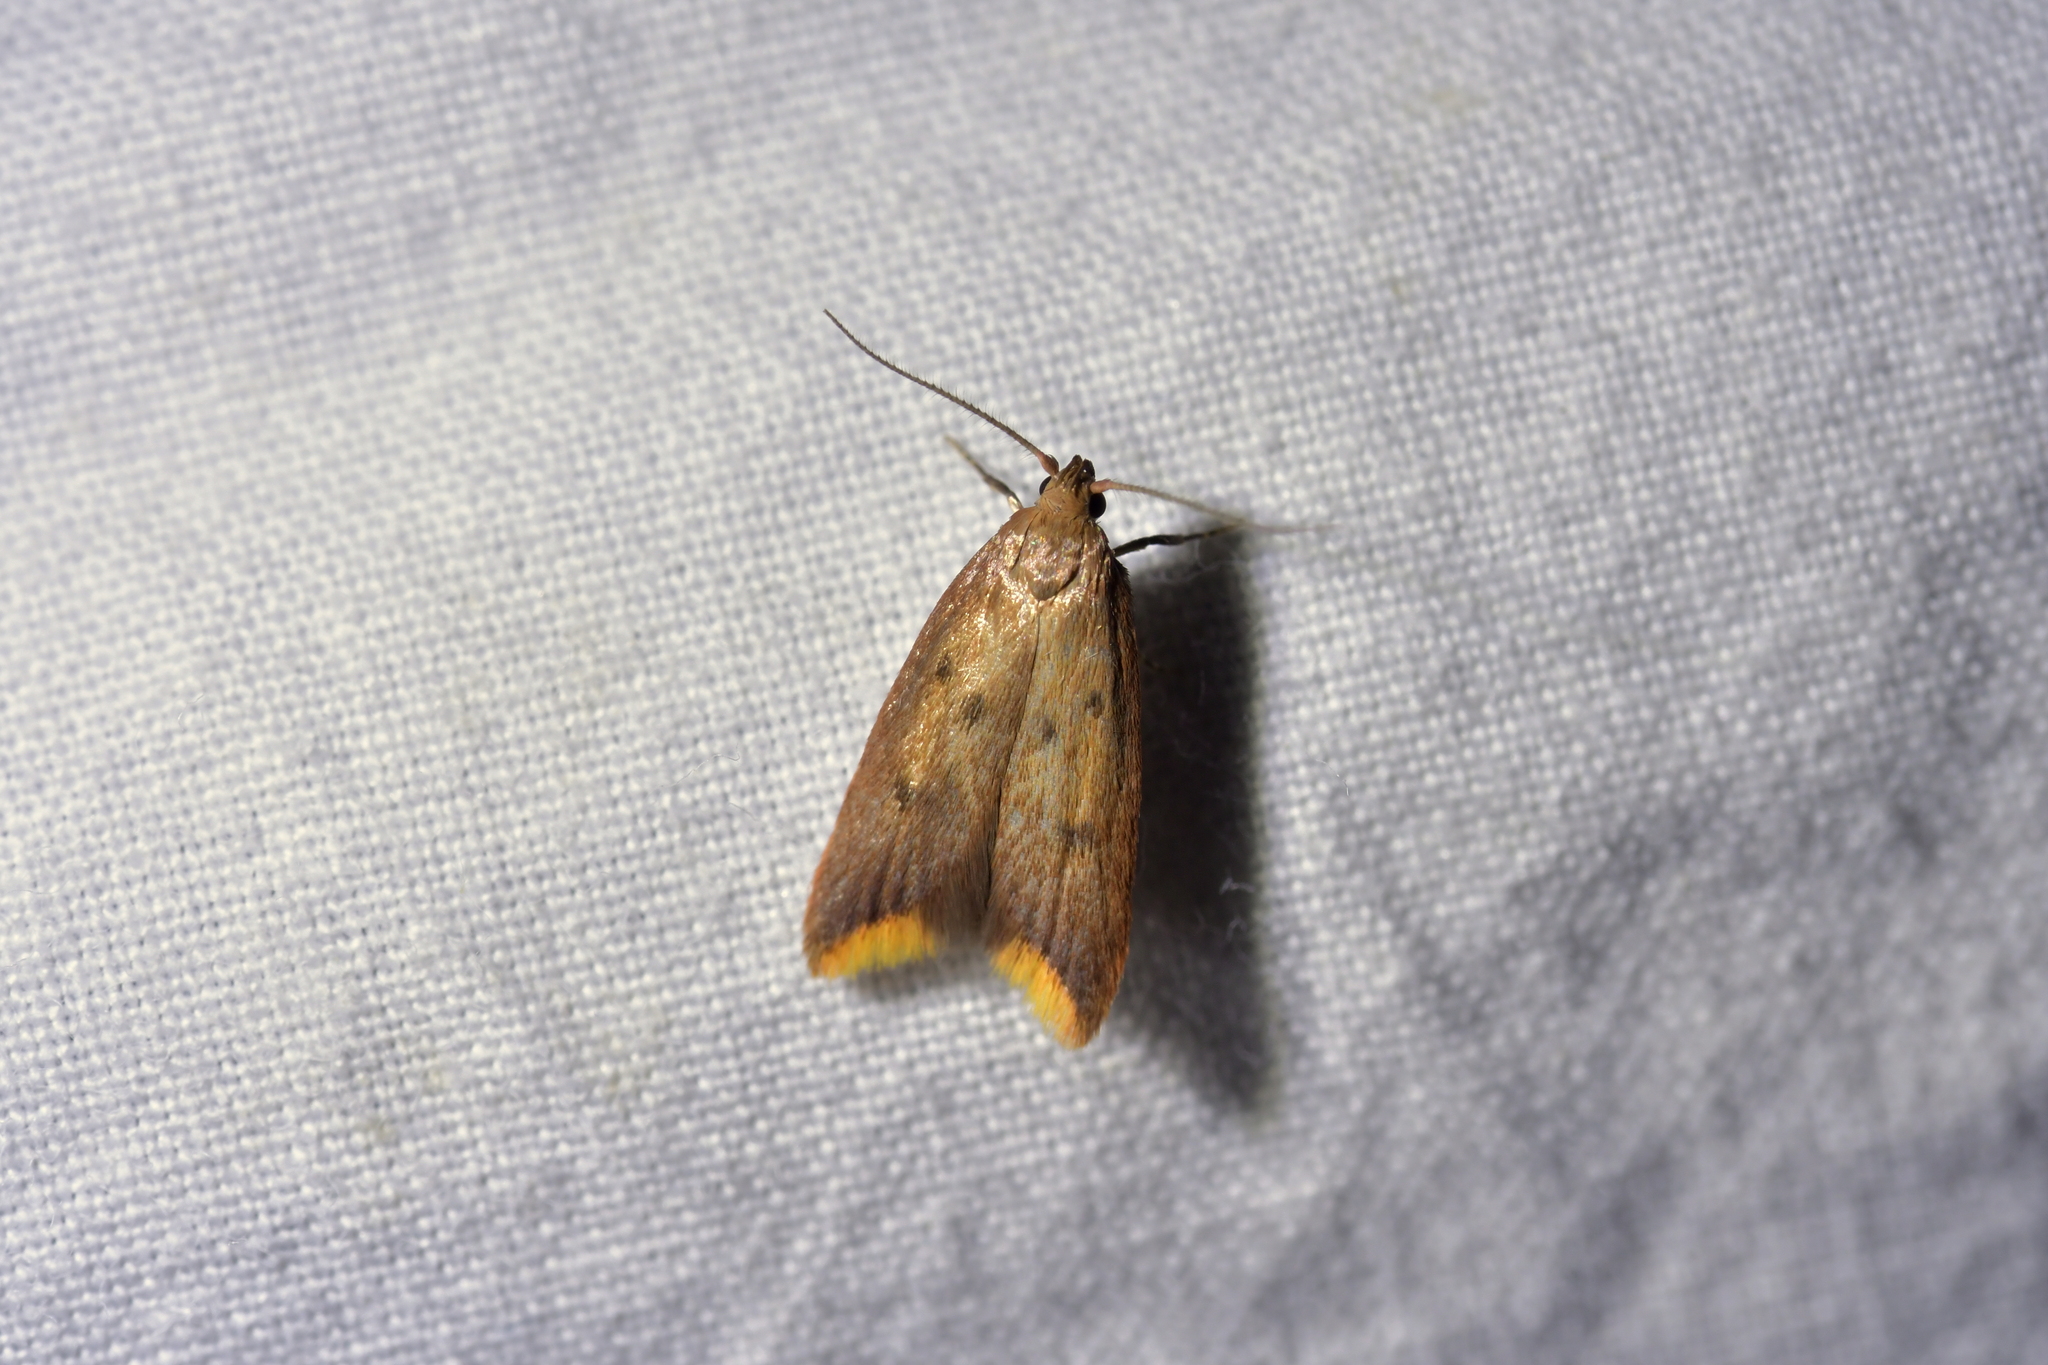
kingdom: Animalia
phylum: Arthropoda
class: Insecta
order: Lepidoptera
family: Oecophoridae
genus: Tachystola
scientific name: Tachystola acroxantha
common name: Ruddy streak
